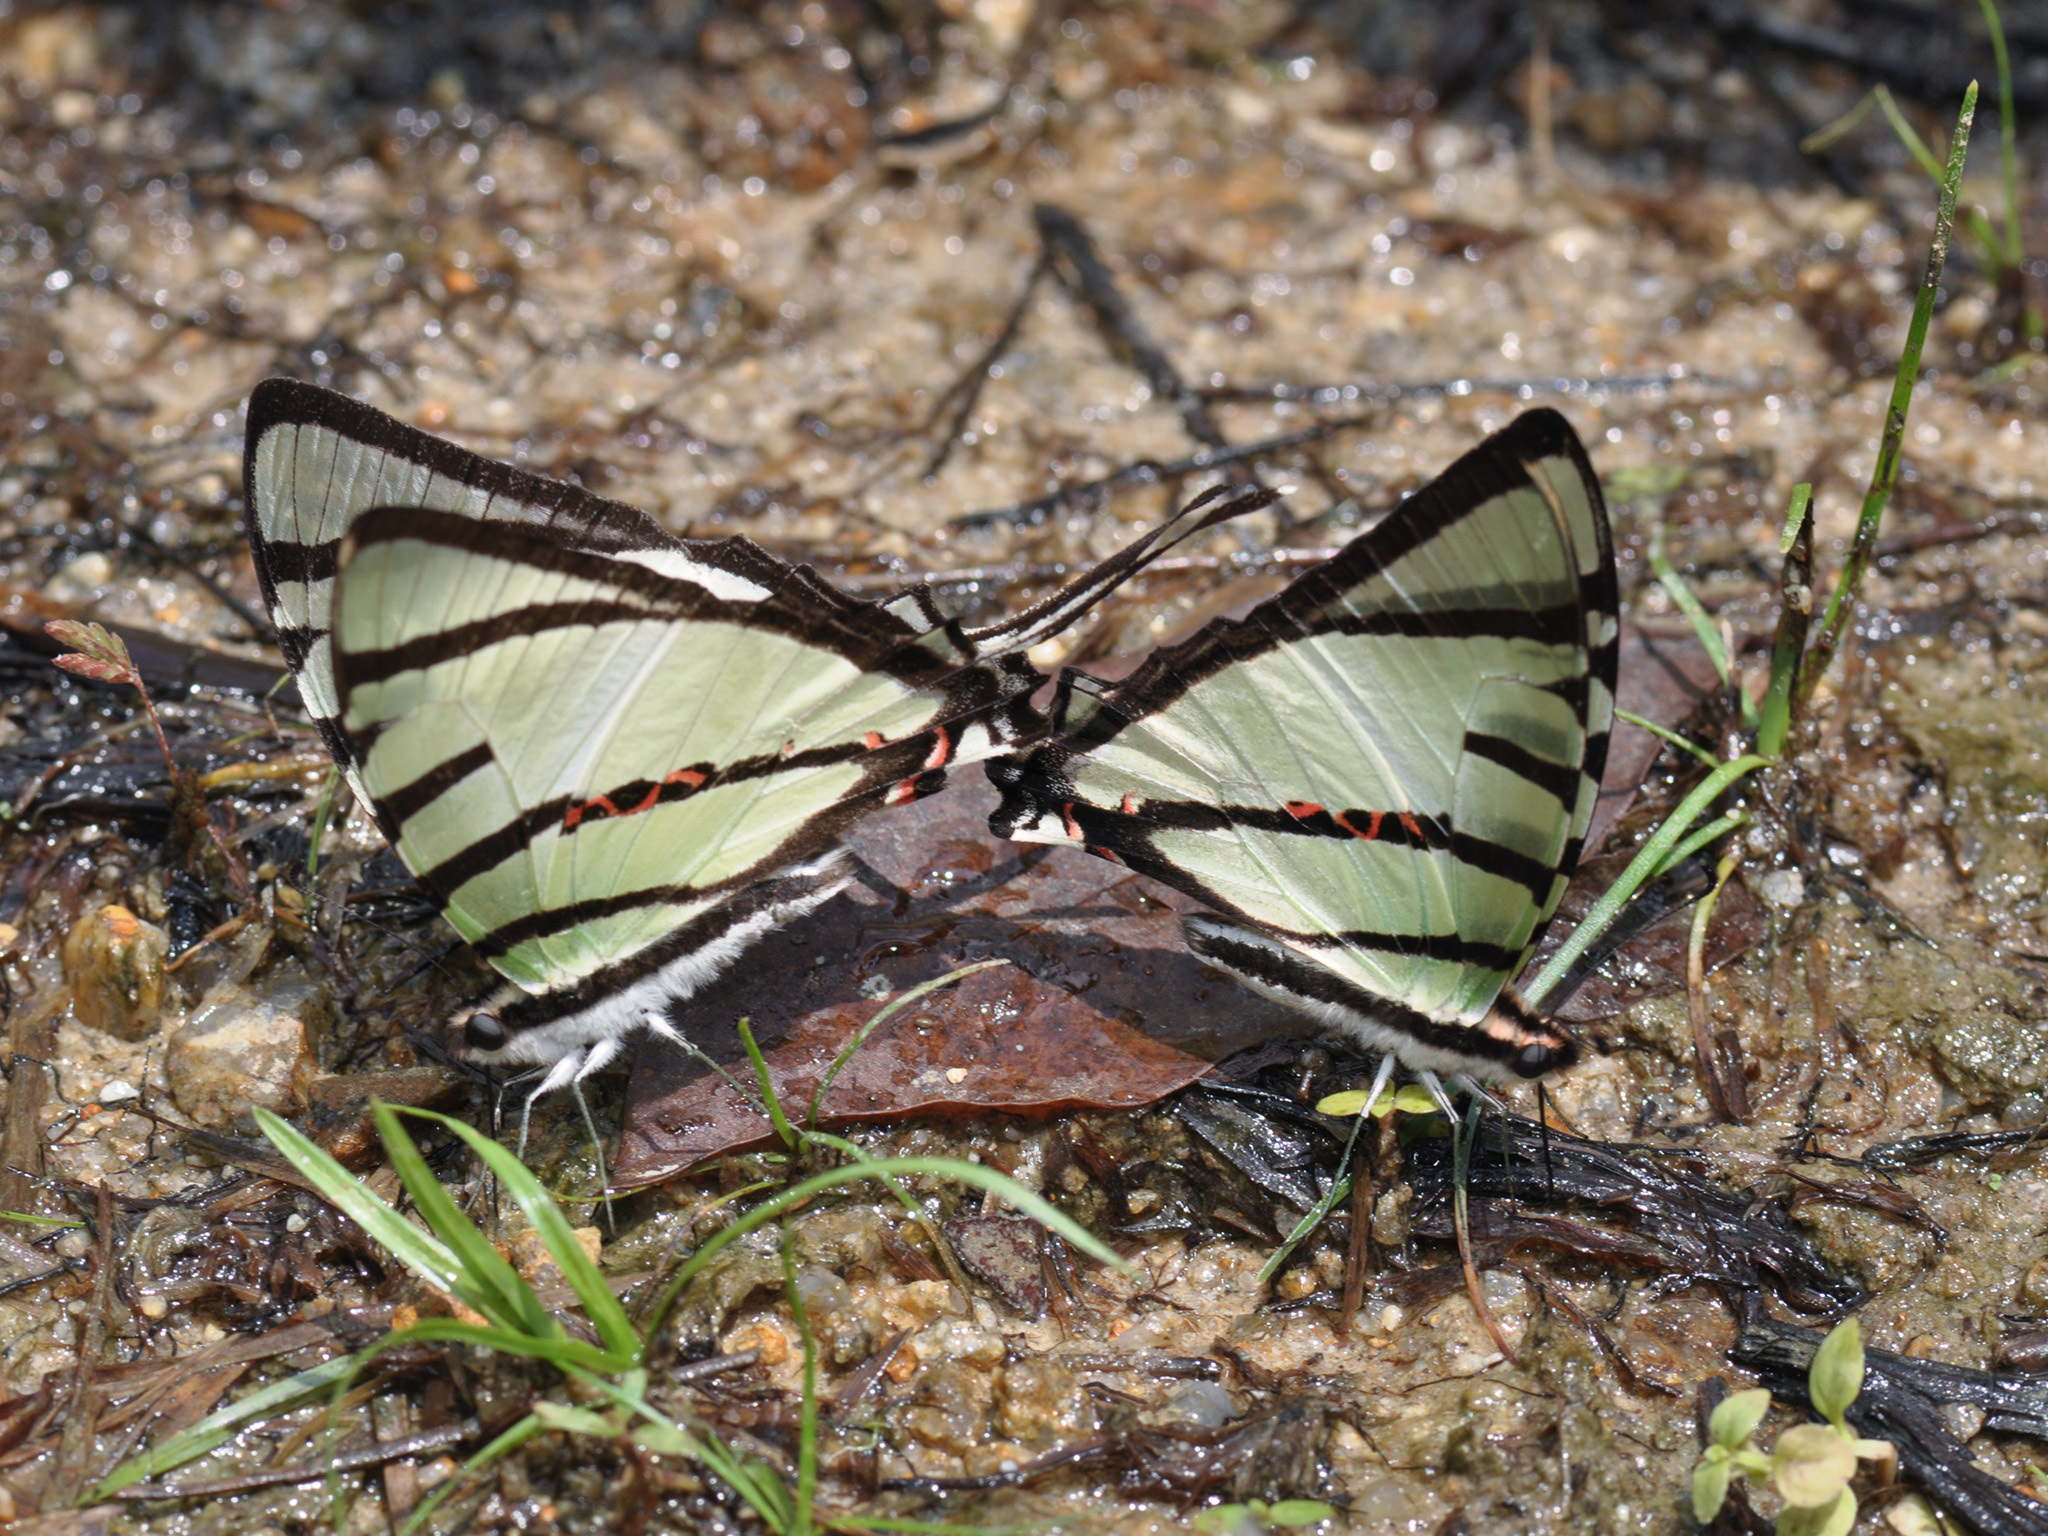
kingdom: Animalia
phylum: Arthropoda
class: Insecta
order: Lepidoptera
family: Papilionidae
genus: Graphium
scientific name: Graphium agetes
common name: Fourbar swordtail
